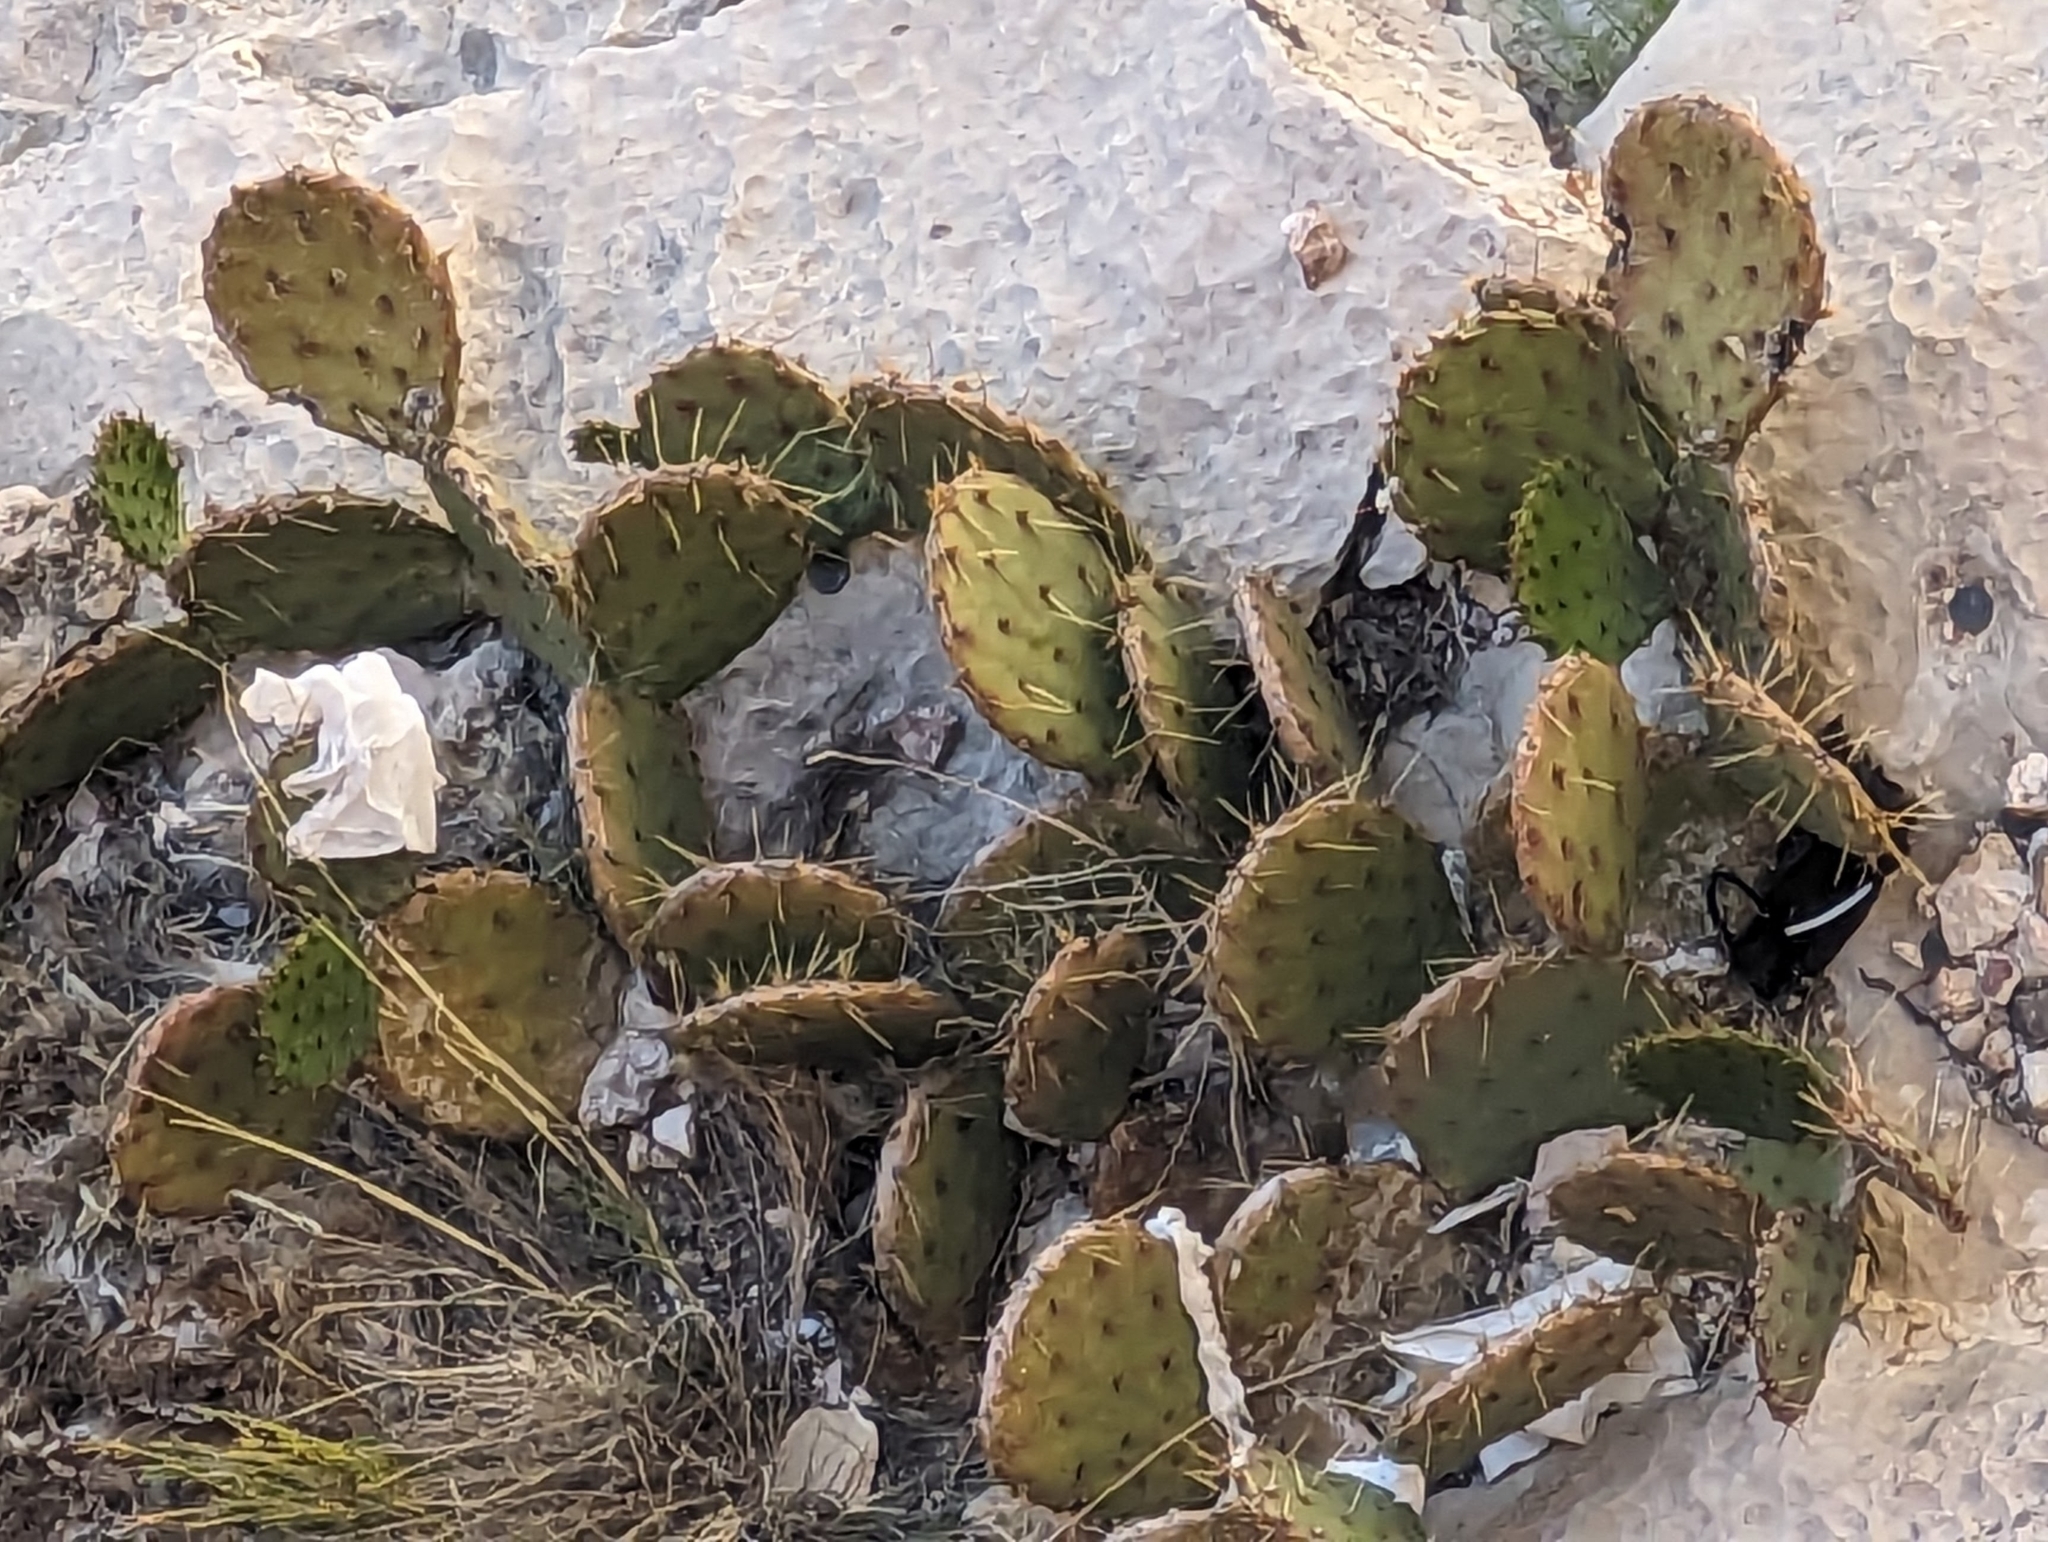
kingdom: Plantae
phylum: Tracheophyta
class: Magnoliopsida
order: Caryophyllales
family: Cactaceae
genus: Opuntia
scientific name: Opuntia phaeacantha
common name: New mexico prickly-pear
